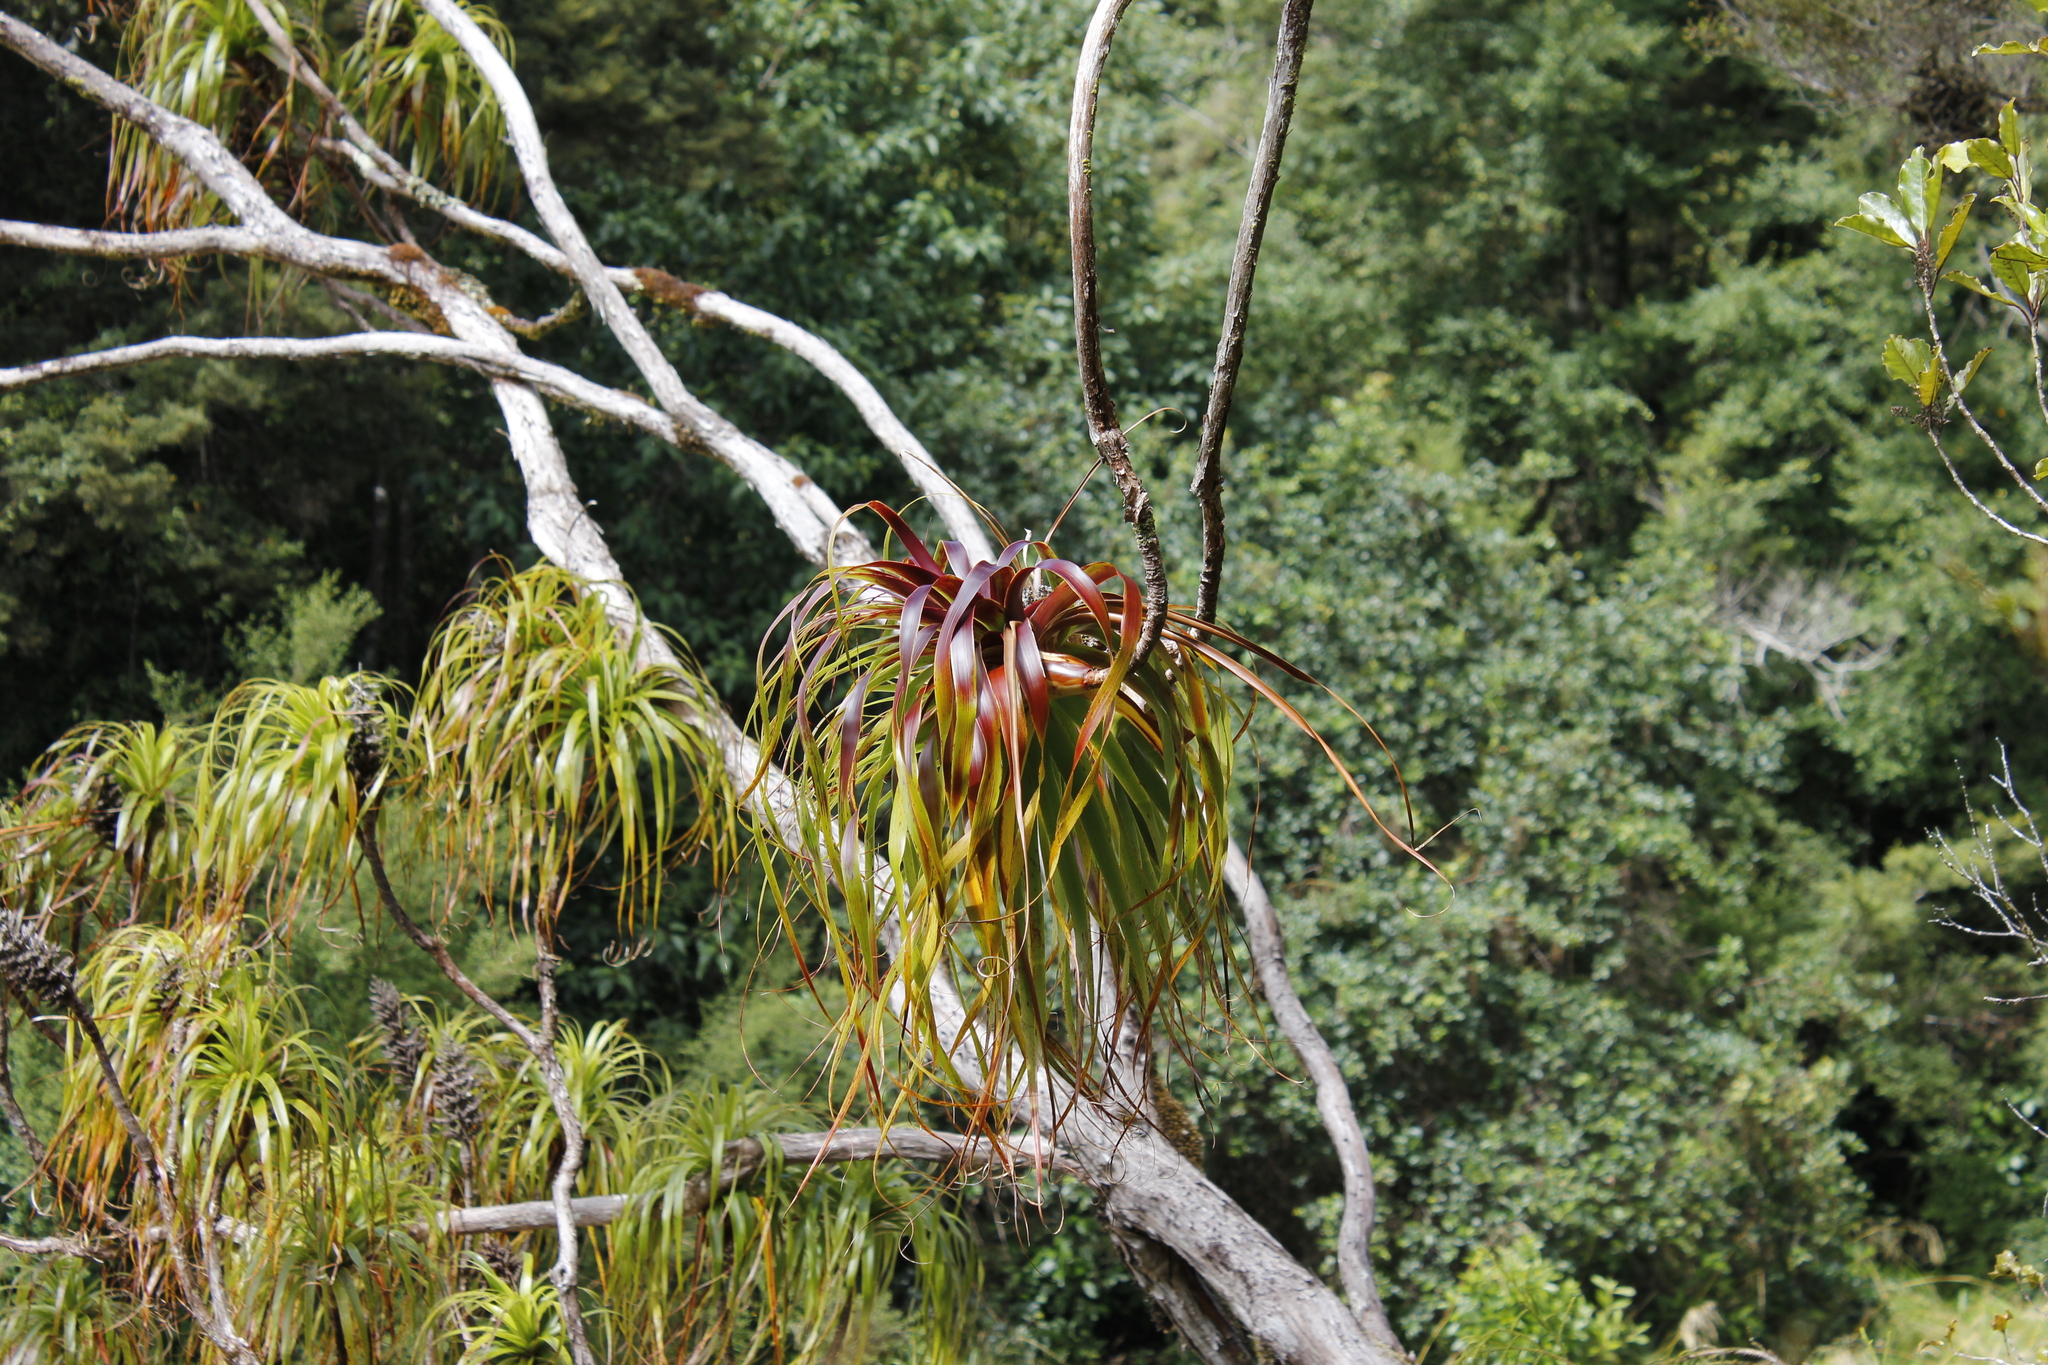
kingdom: Plantae
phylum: Tracheophyta
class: Magnoliopsida
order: Ericales
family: Ericaceae
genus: Dracophyllum
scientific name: Dracophyllum elegantissimum
